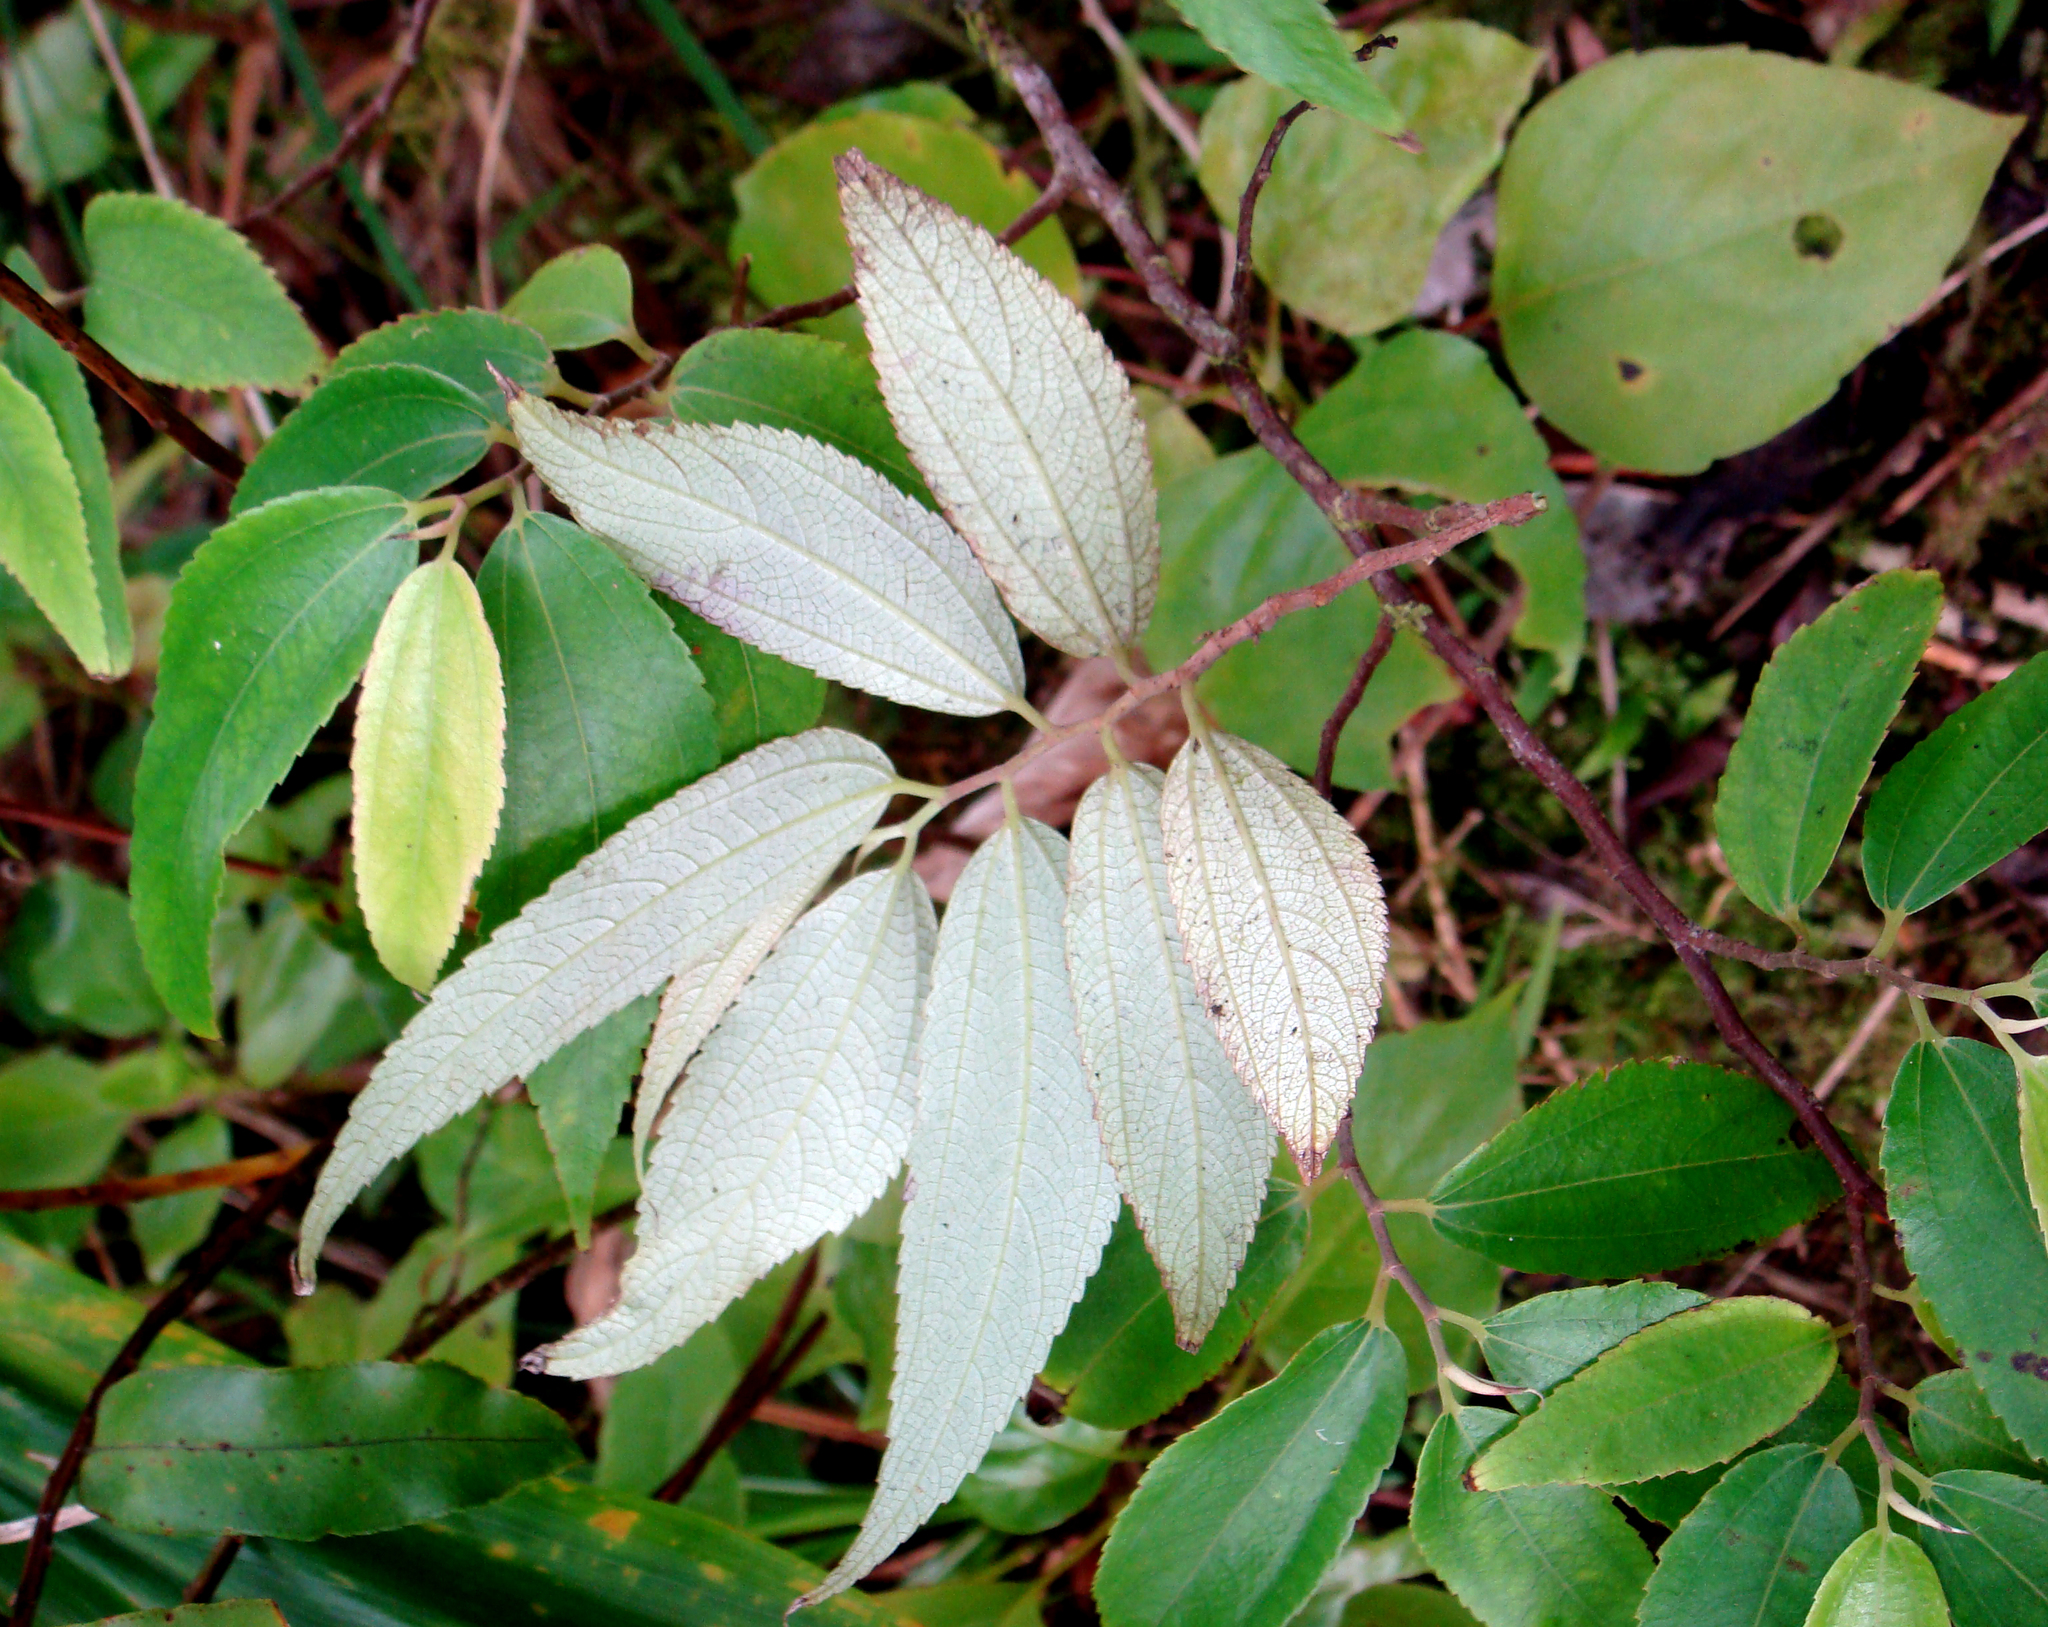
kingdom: Plantae
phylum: Tracheophyta
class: Magnoliopsida
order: Rosales
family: Urticaceae
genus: Leucosyke
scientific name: Leucosyke corymbulosa
